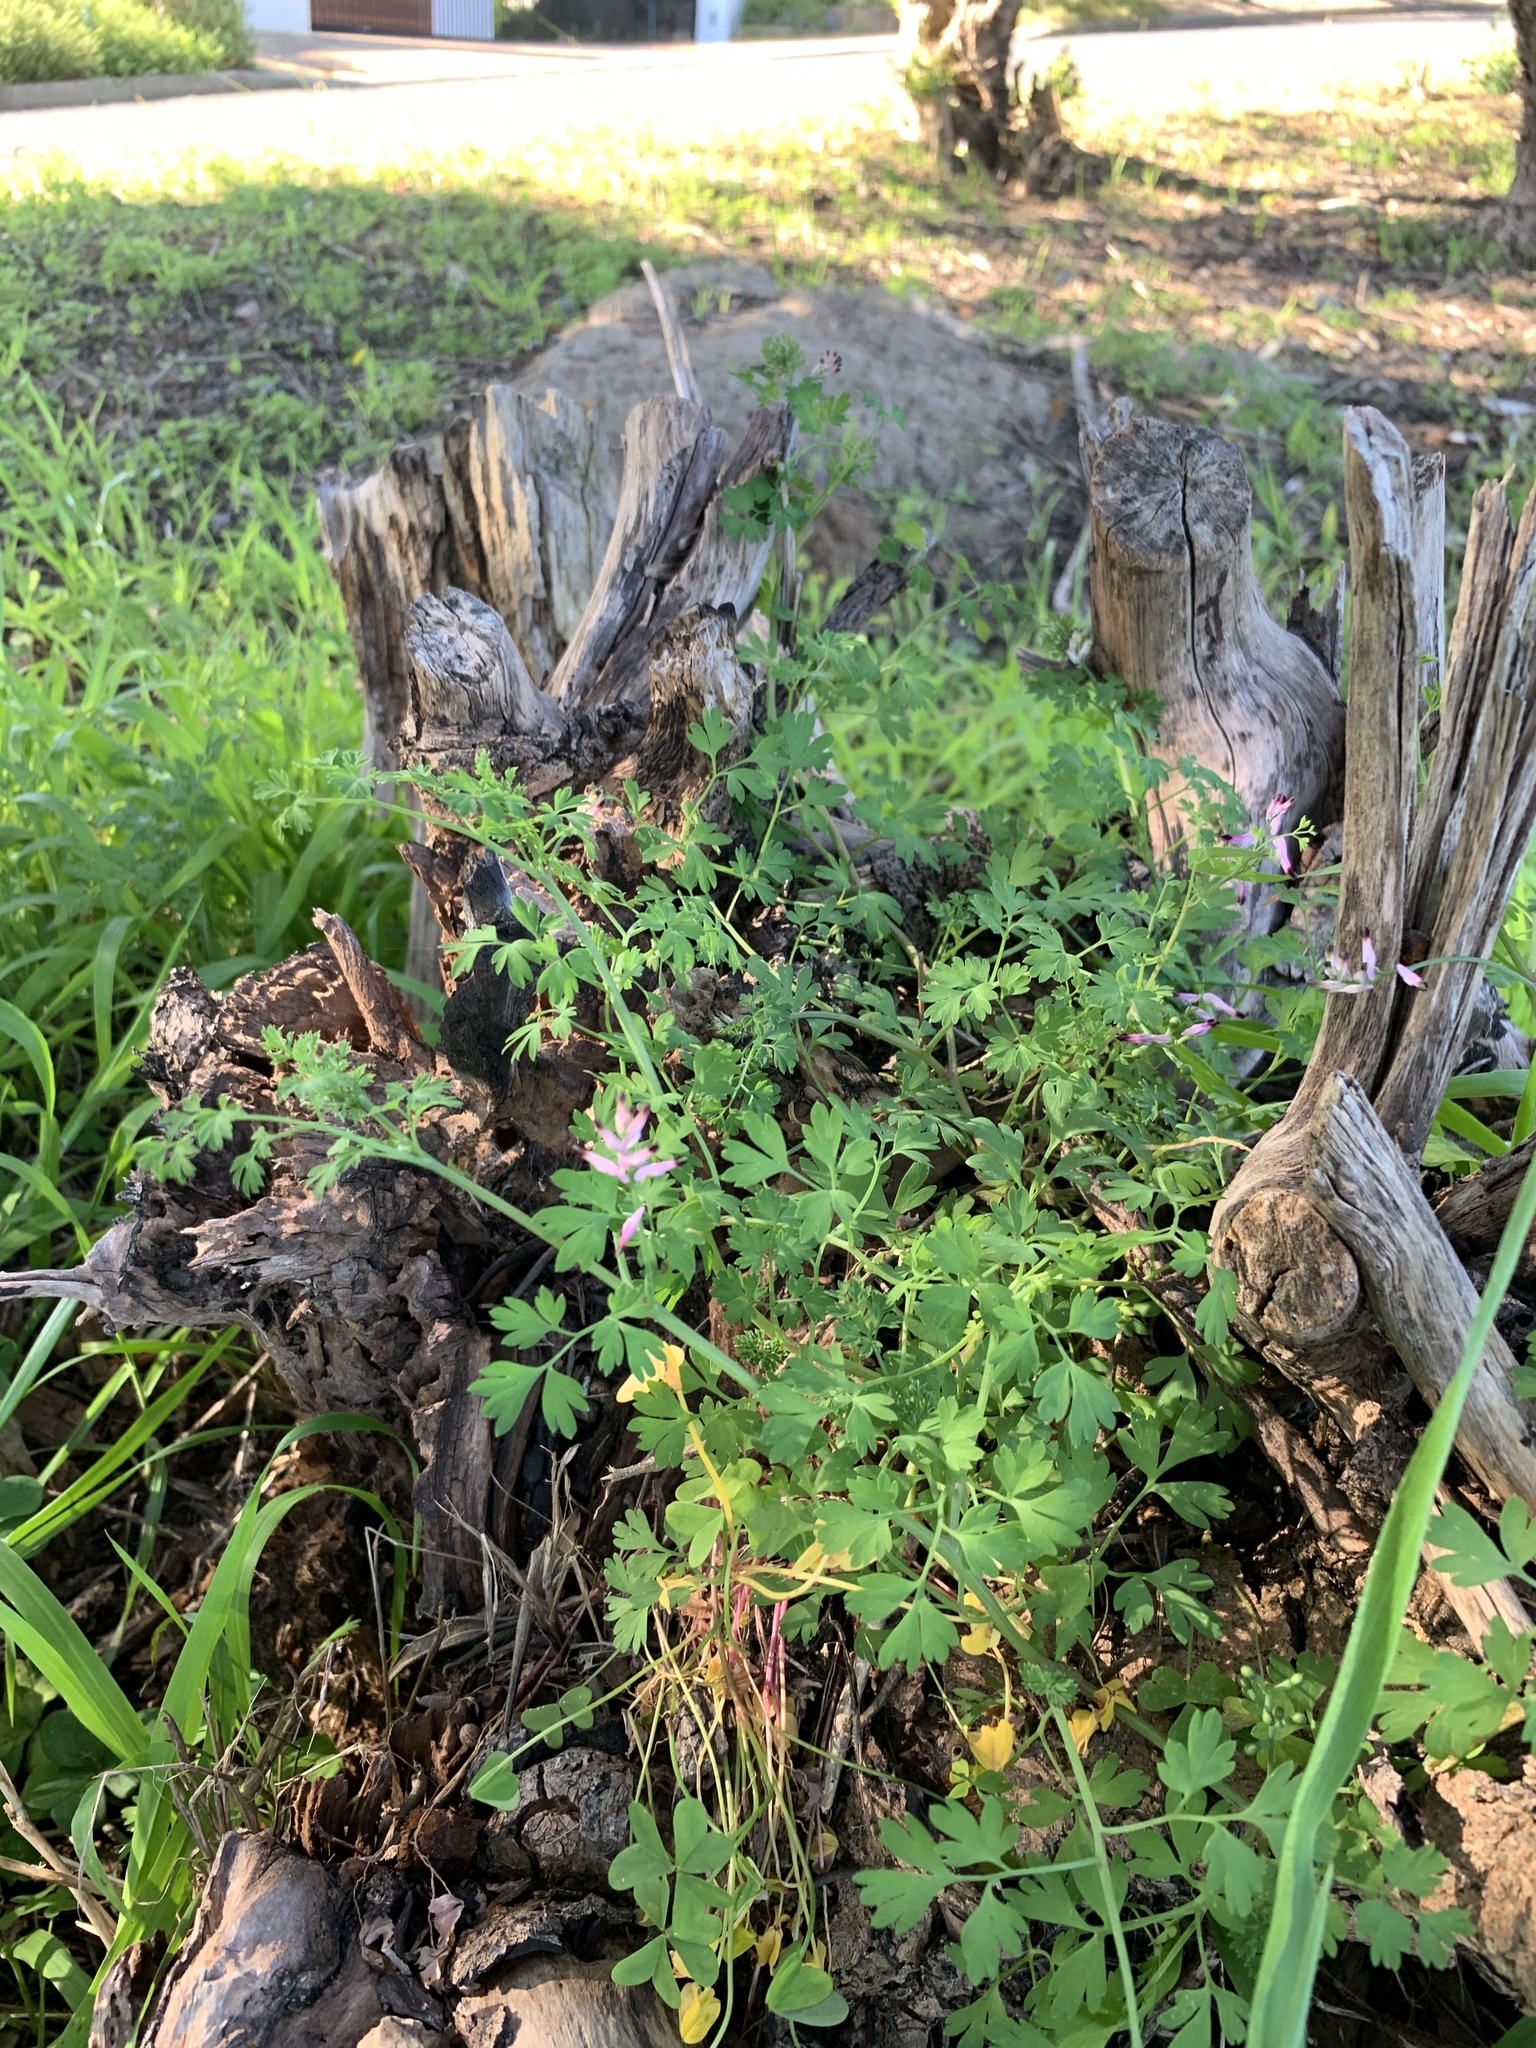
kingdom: Plantae
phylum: Tracheophyta
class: Magnoliopsida
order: Ranunculales
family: Papaveraceae
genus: Fumaria
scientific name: Fumaria muralis
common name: Common ramping-fumitory
